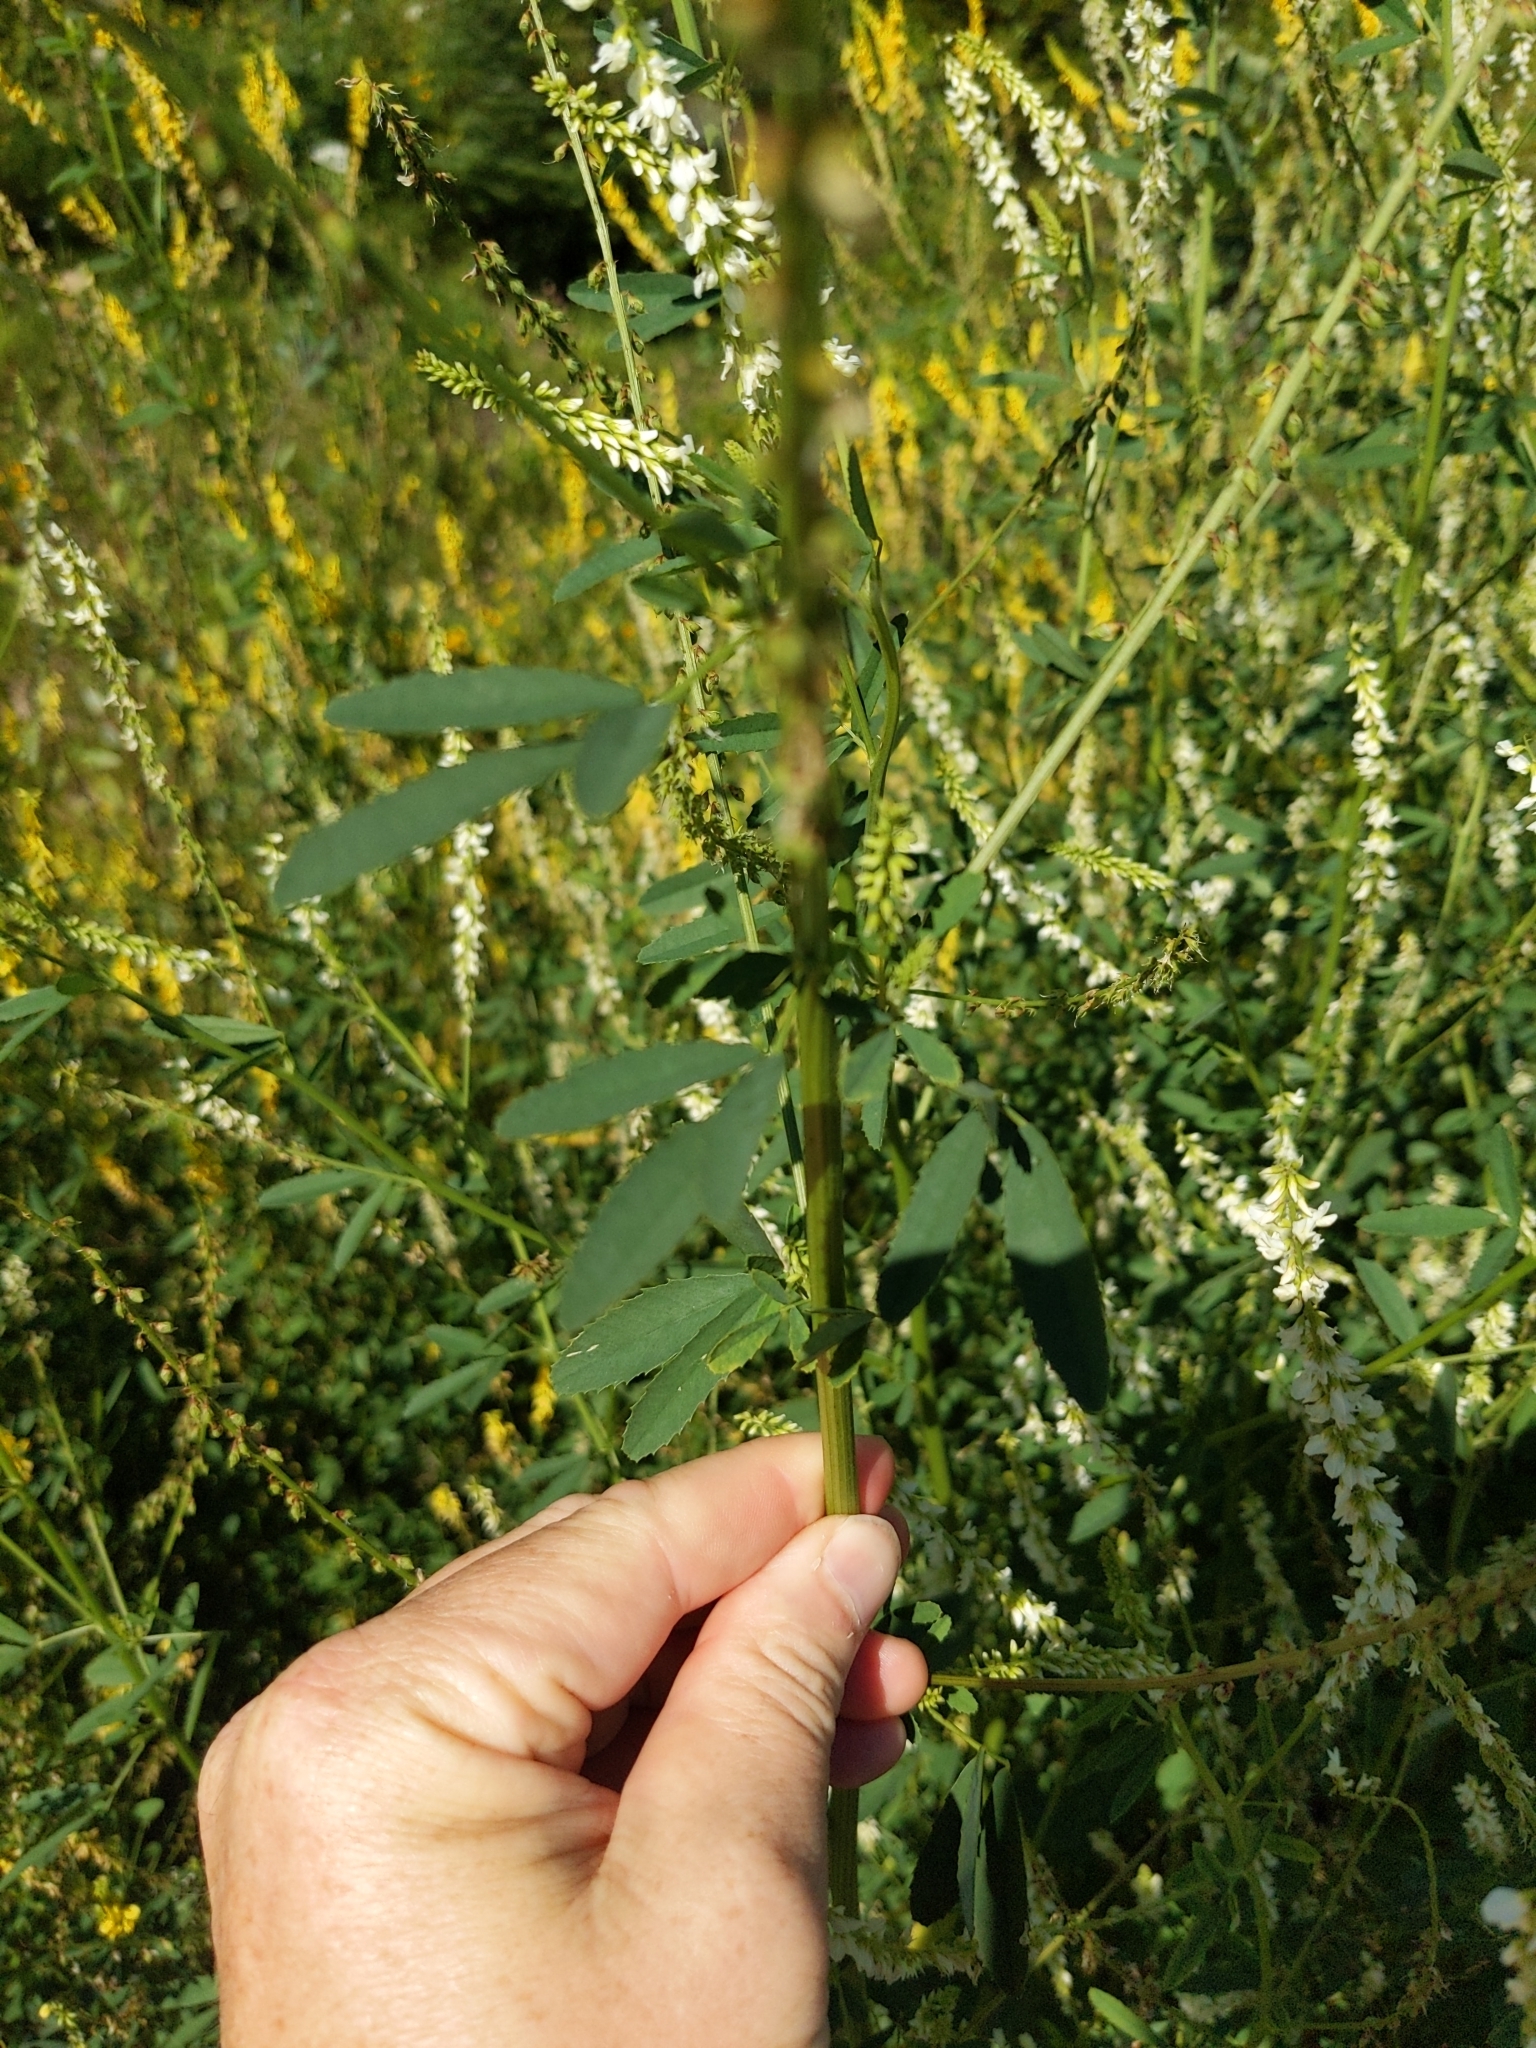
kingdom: Plantae
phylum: Tracheophyta
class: Magnoliopsida
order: Fabales
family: Fabaceae
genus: Melilotus
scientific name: Melilotus albus
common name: White melilot
